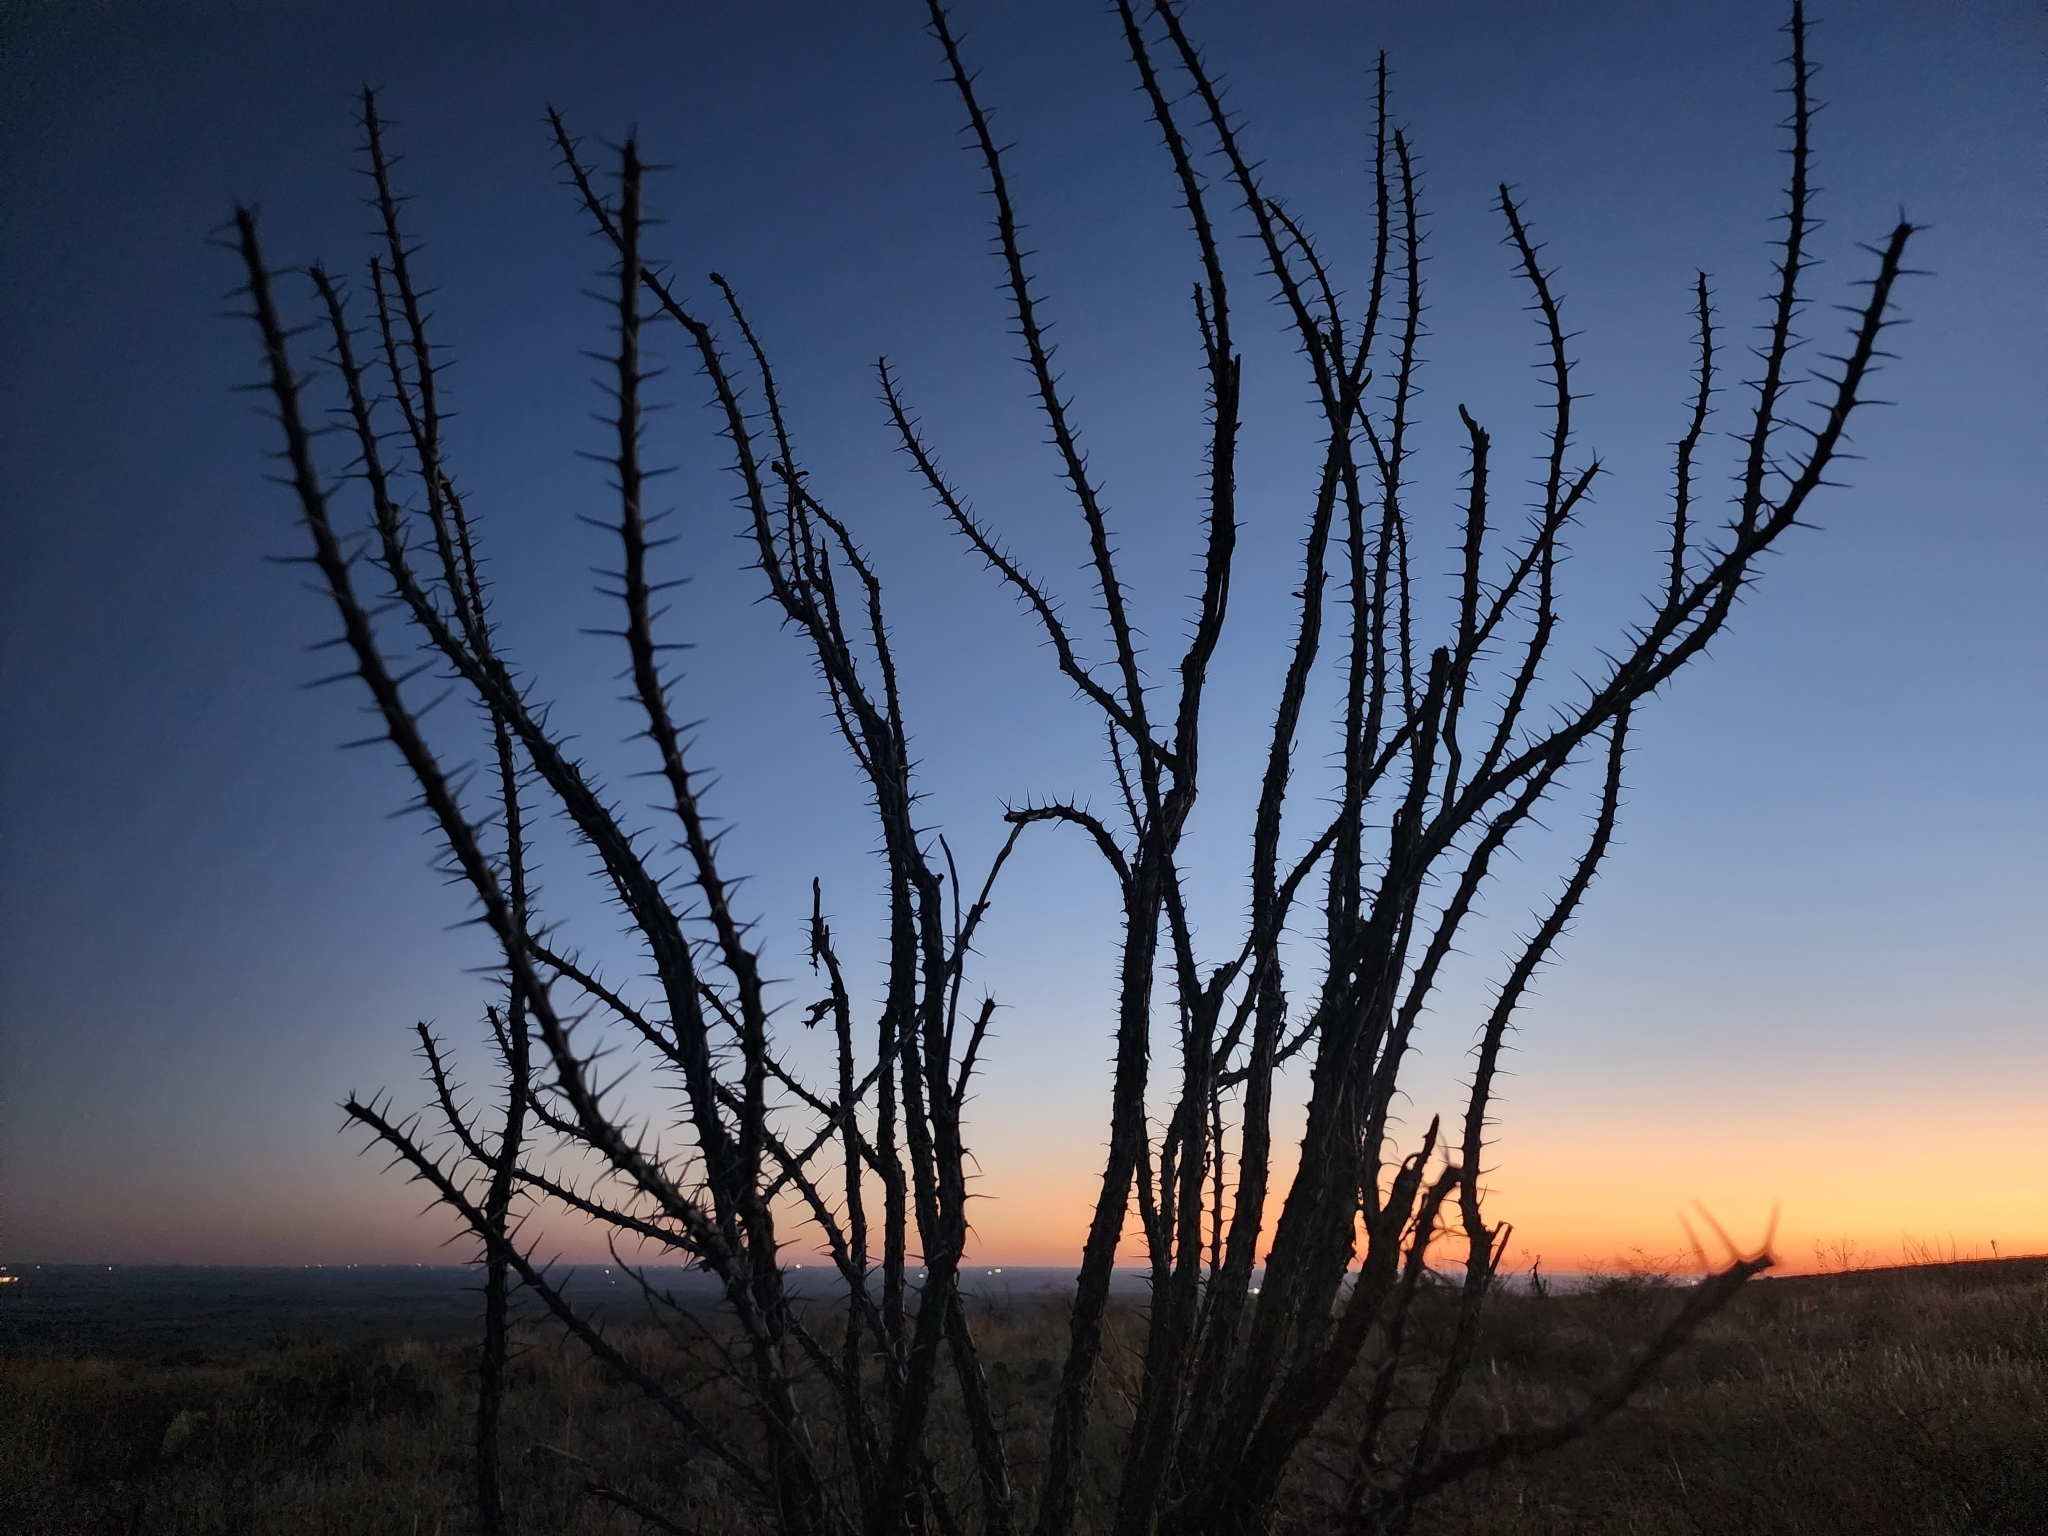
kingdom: Plantae
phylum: Tracheophyta
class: Magnoliopsida
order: Ericales
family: Fouquieriaceae
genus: Fouquieria
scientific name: Fouquieria splendens
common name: Vine-cactus
